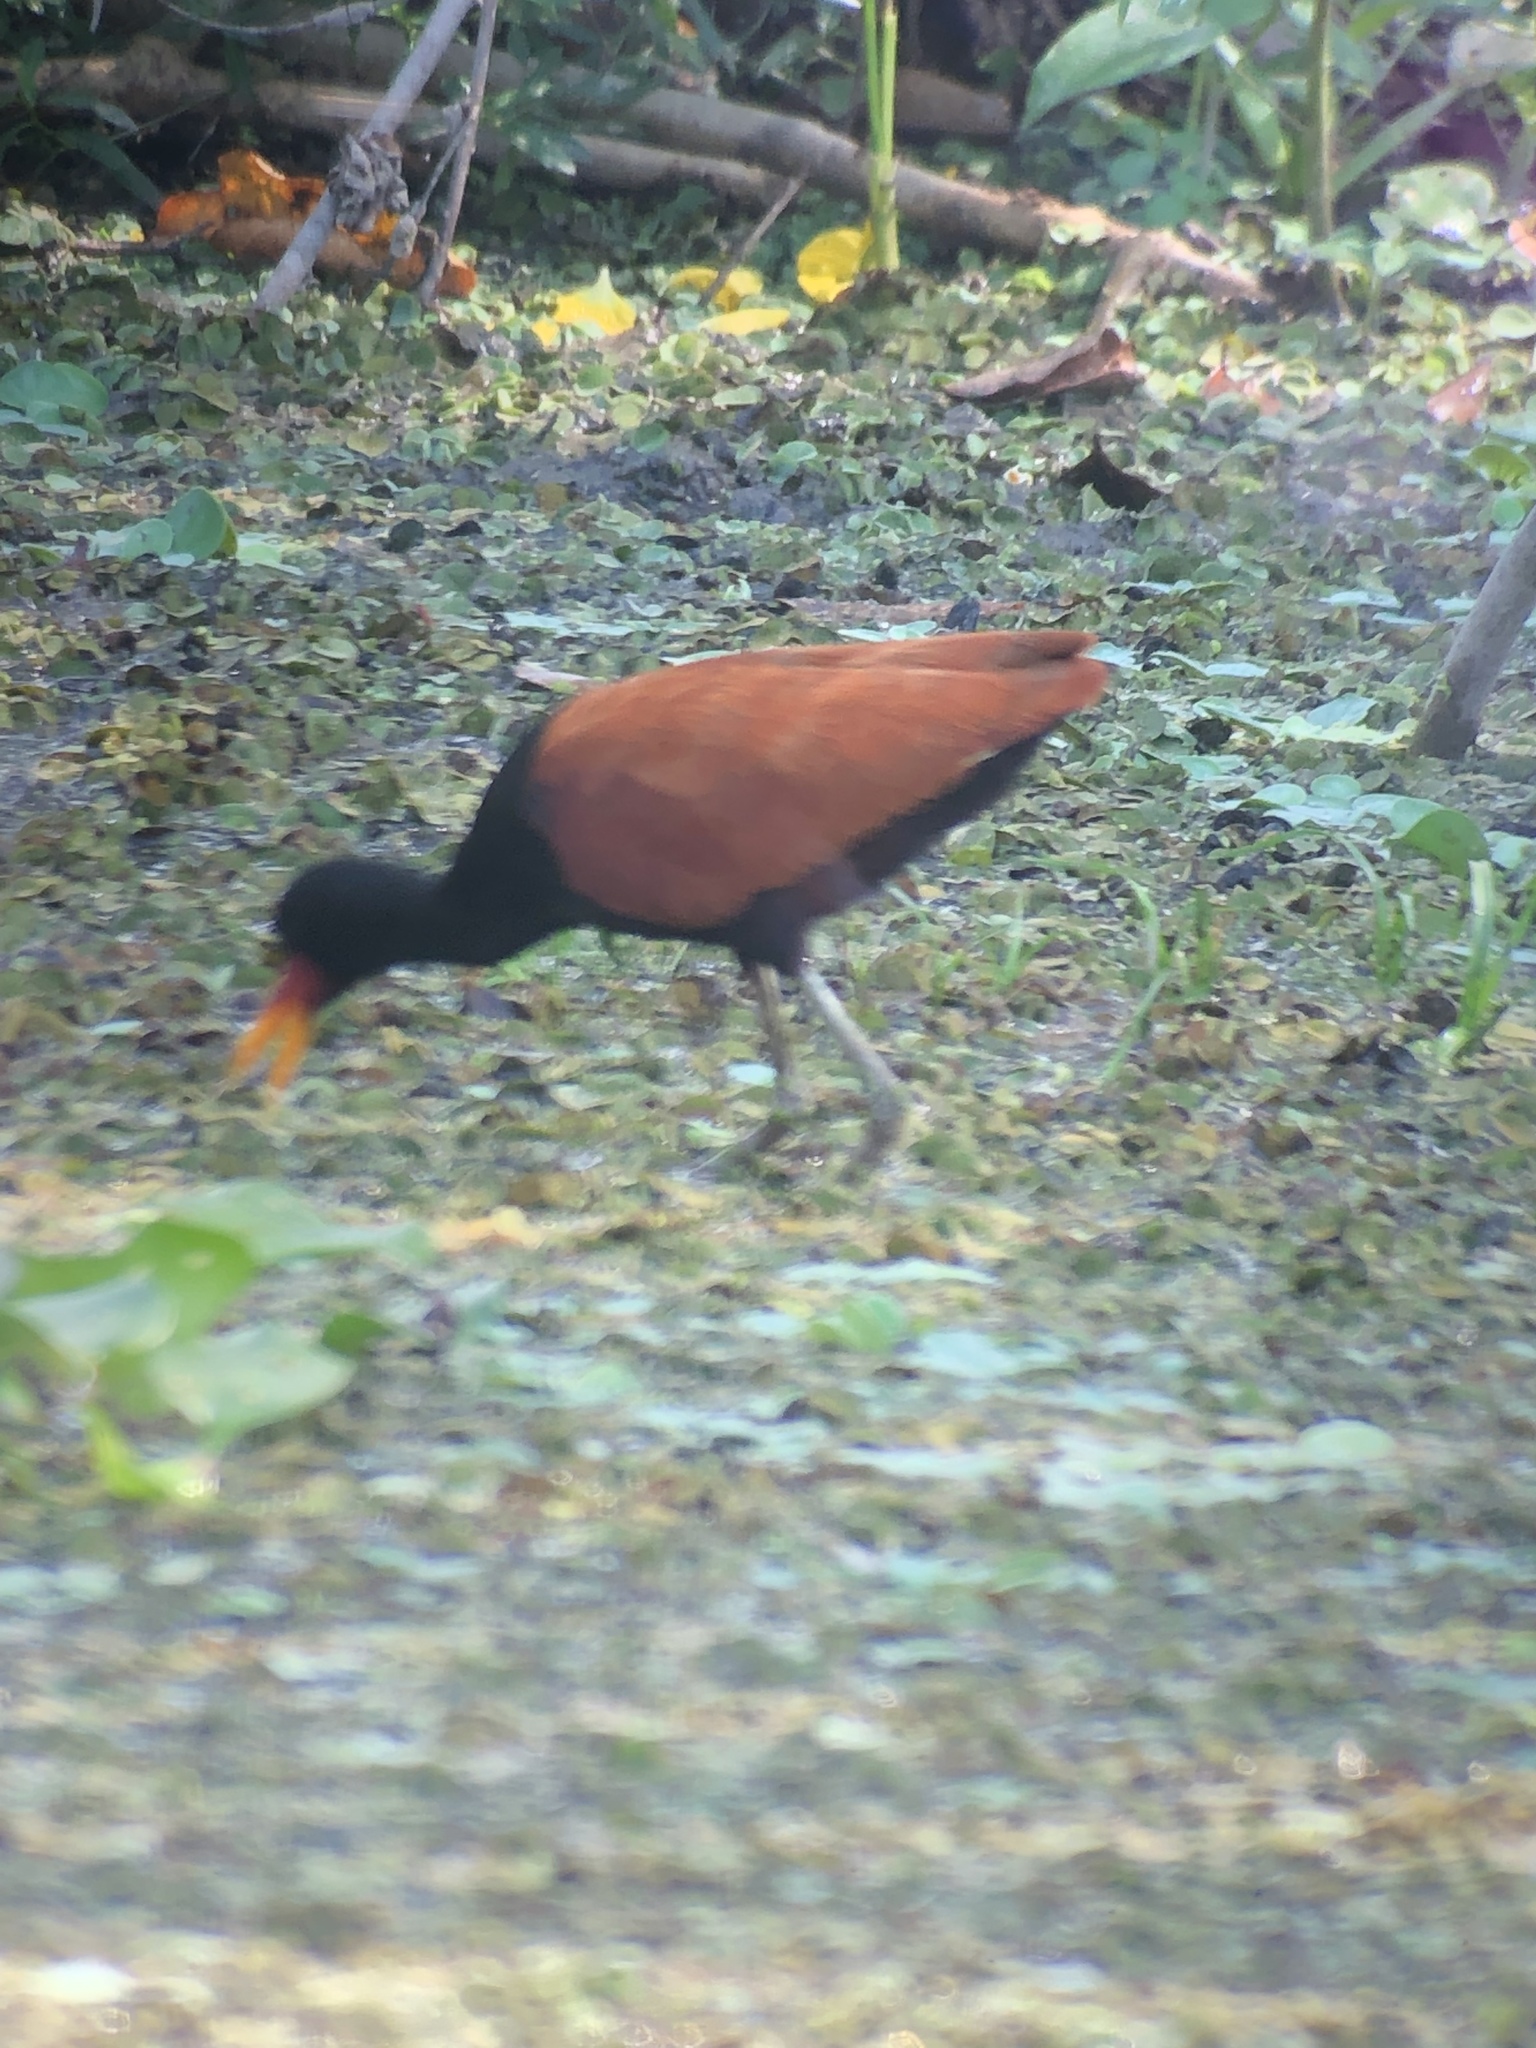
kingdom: Animalia
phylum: Chordata
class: Aves
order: Charadriiformes
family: Jacanidae
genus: Jacana
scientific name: Jacana jacana
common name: Wattled jacana
